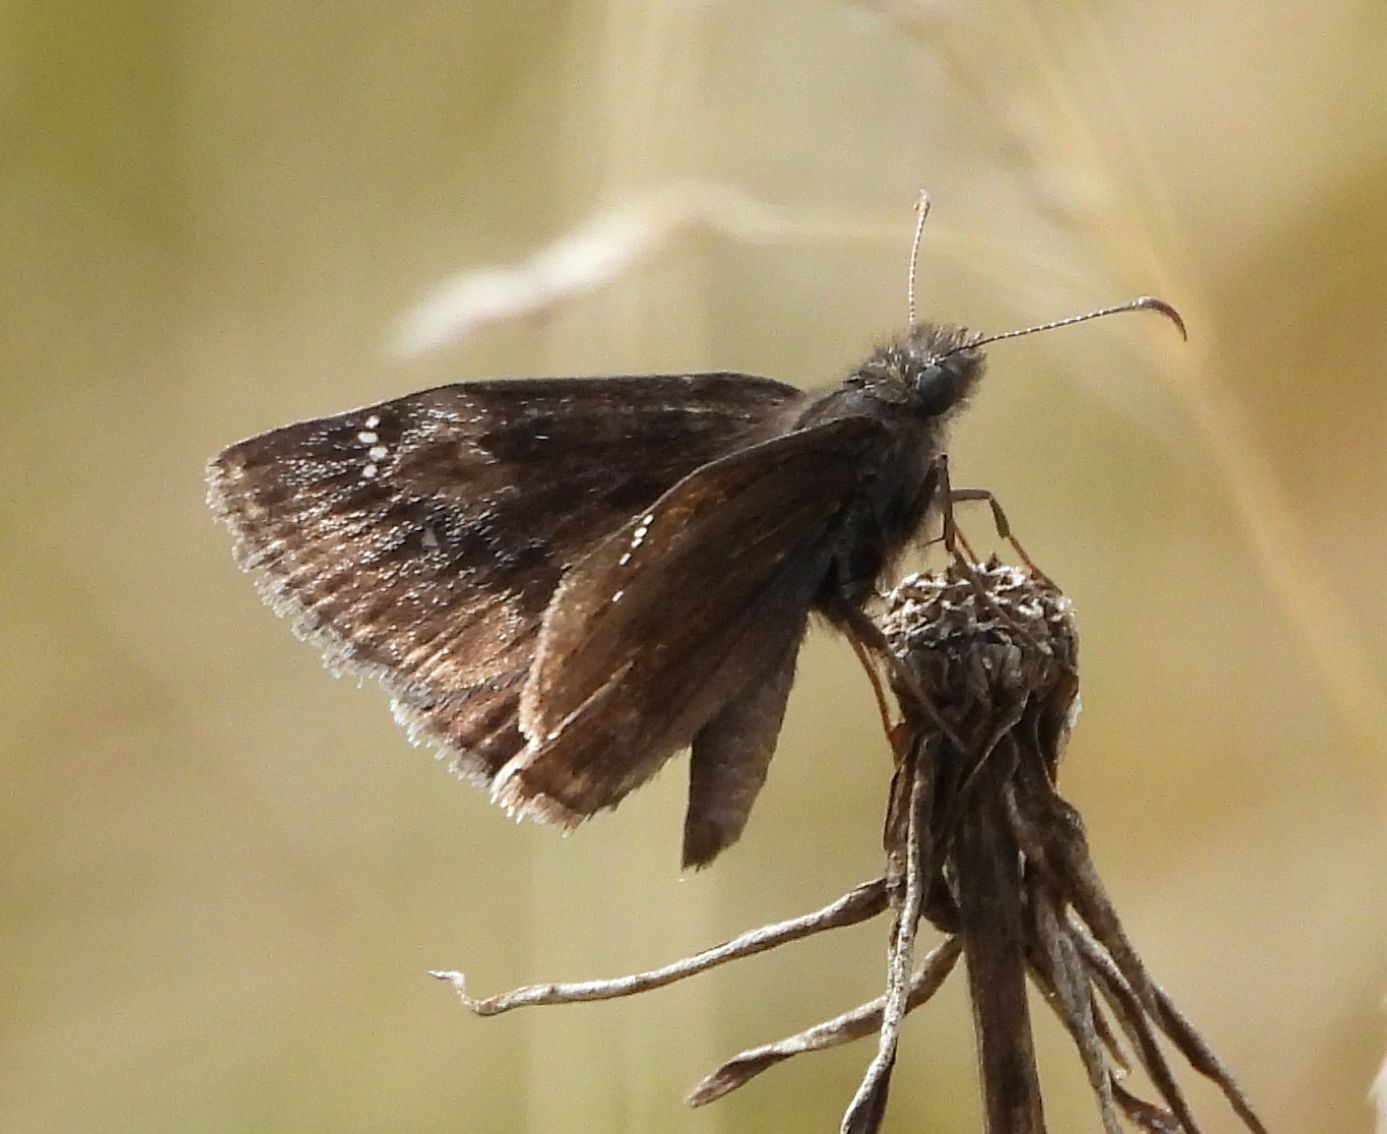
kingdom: Animalia
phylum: Arthropoda
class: Insecta
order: Lepidoptera
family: Hesperiidae
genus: Erynnis
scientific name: Erynnis baptisiae
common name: Wild indigo duskywing
